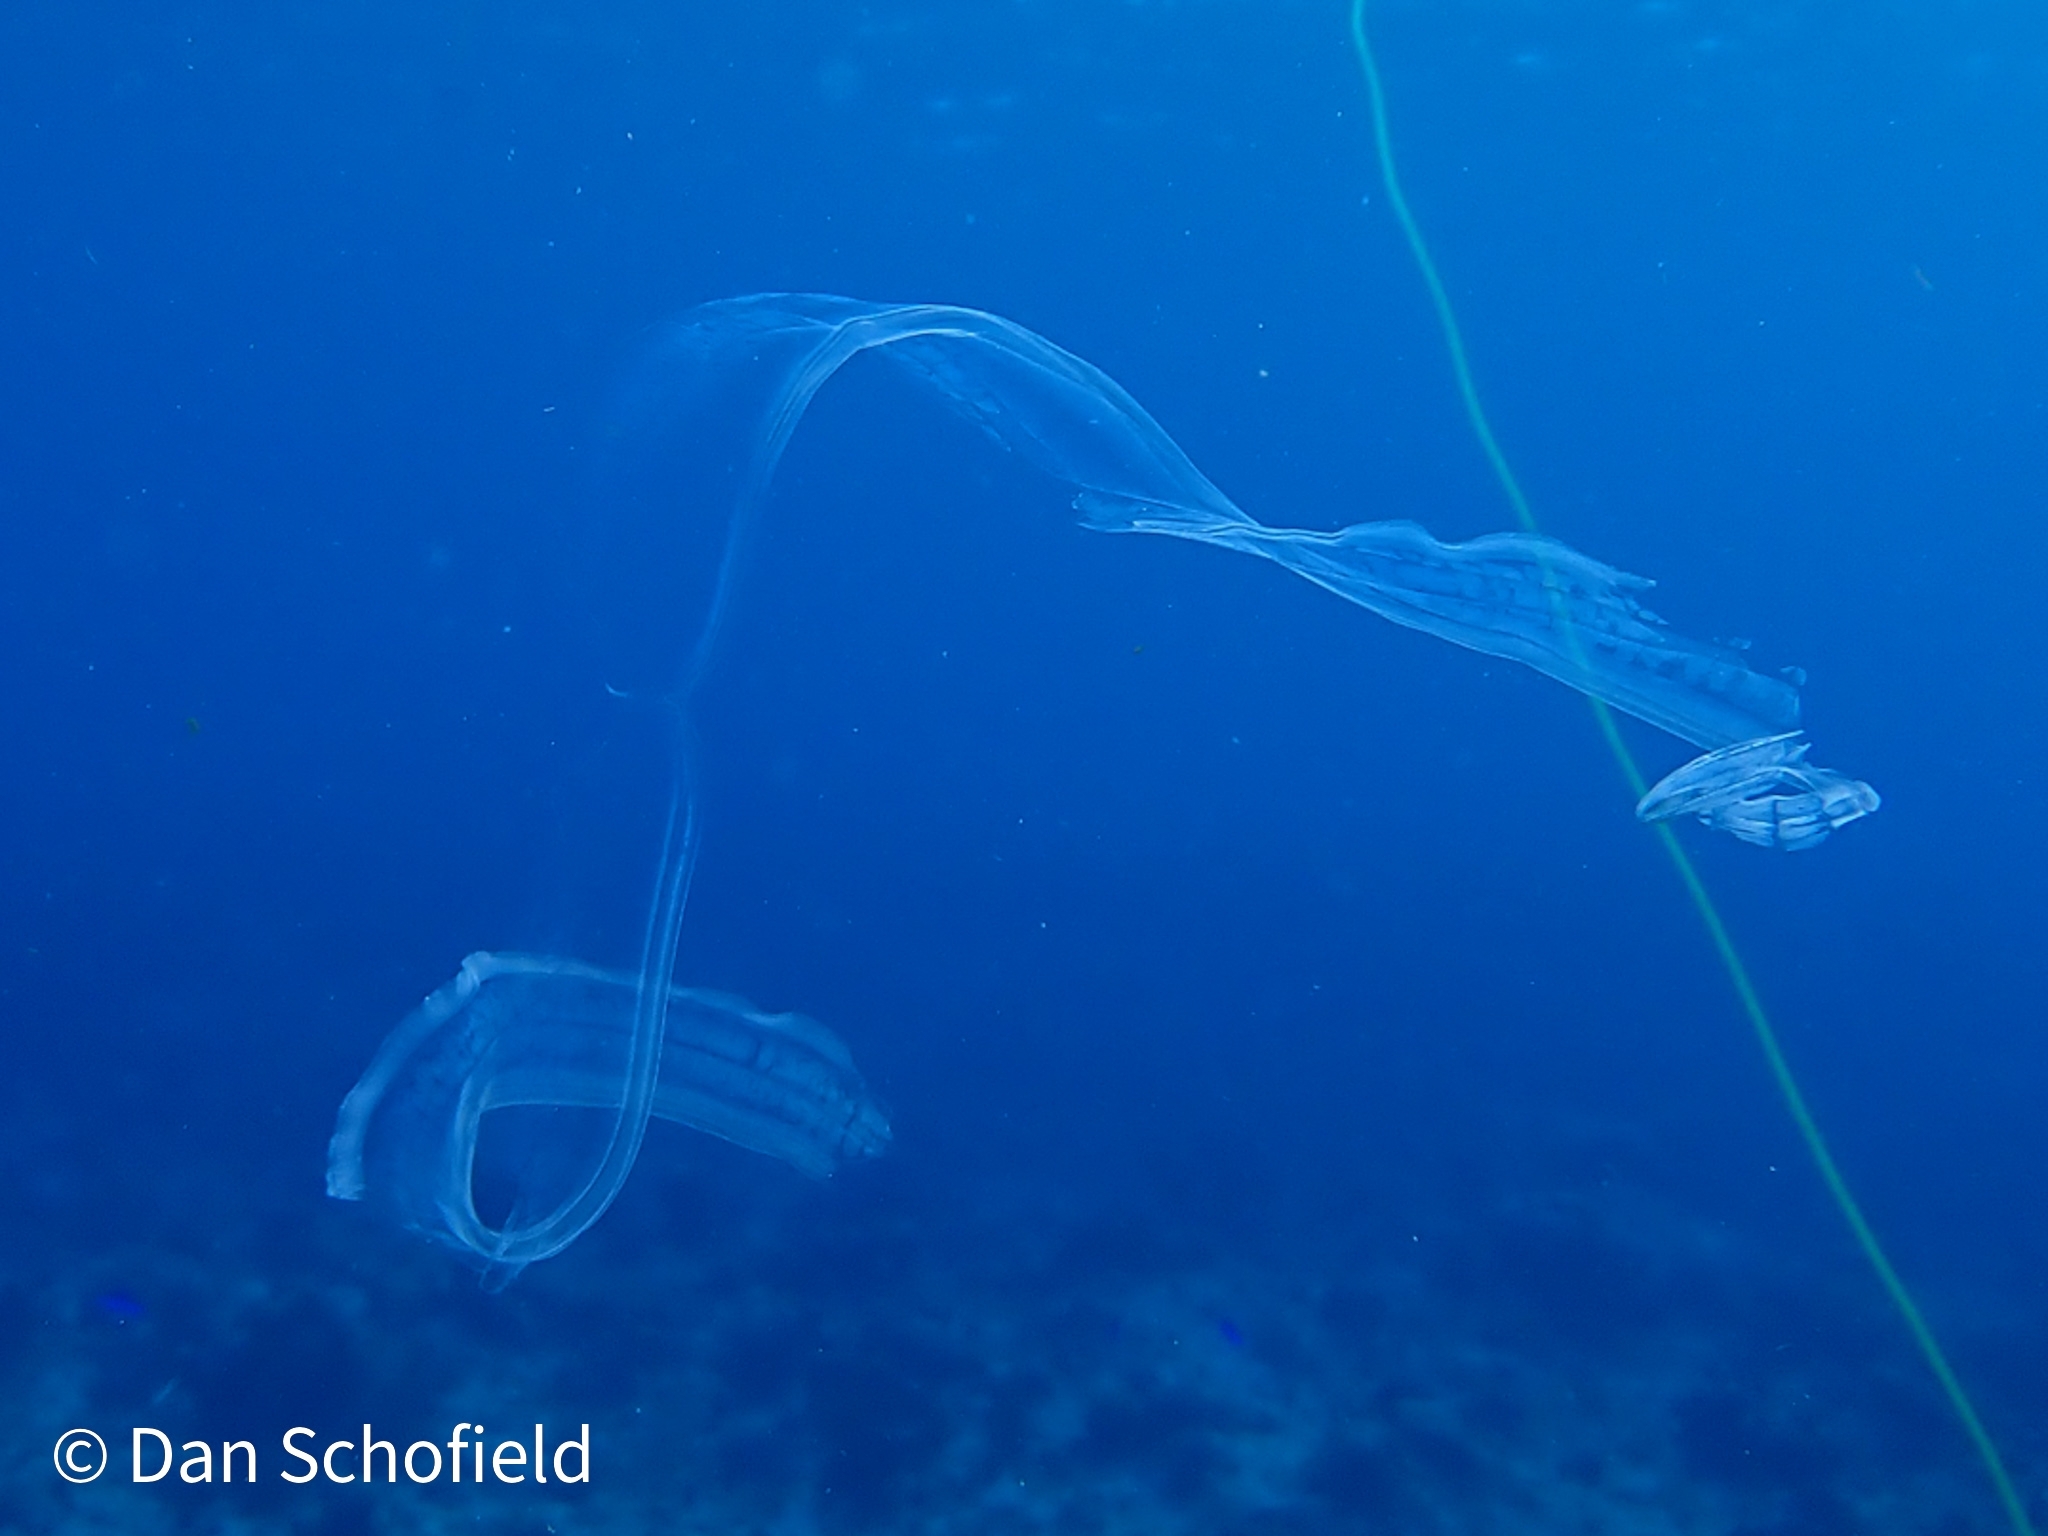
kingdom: Animalia
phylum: Ctenophora
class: Tentaculata
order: Cestida
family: Cestidae
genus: Cestum
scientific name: Cestum veneris
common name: Venus girdle
